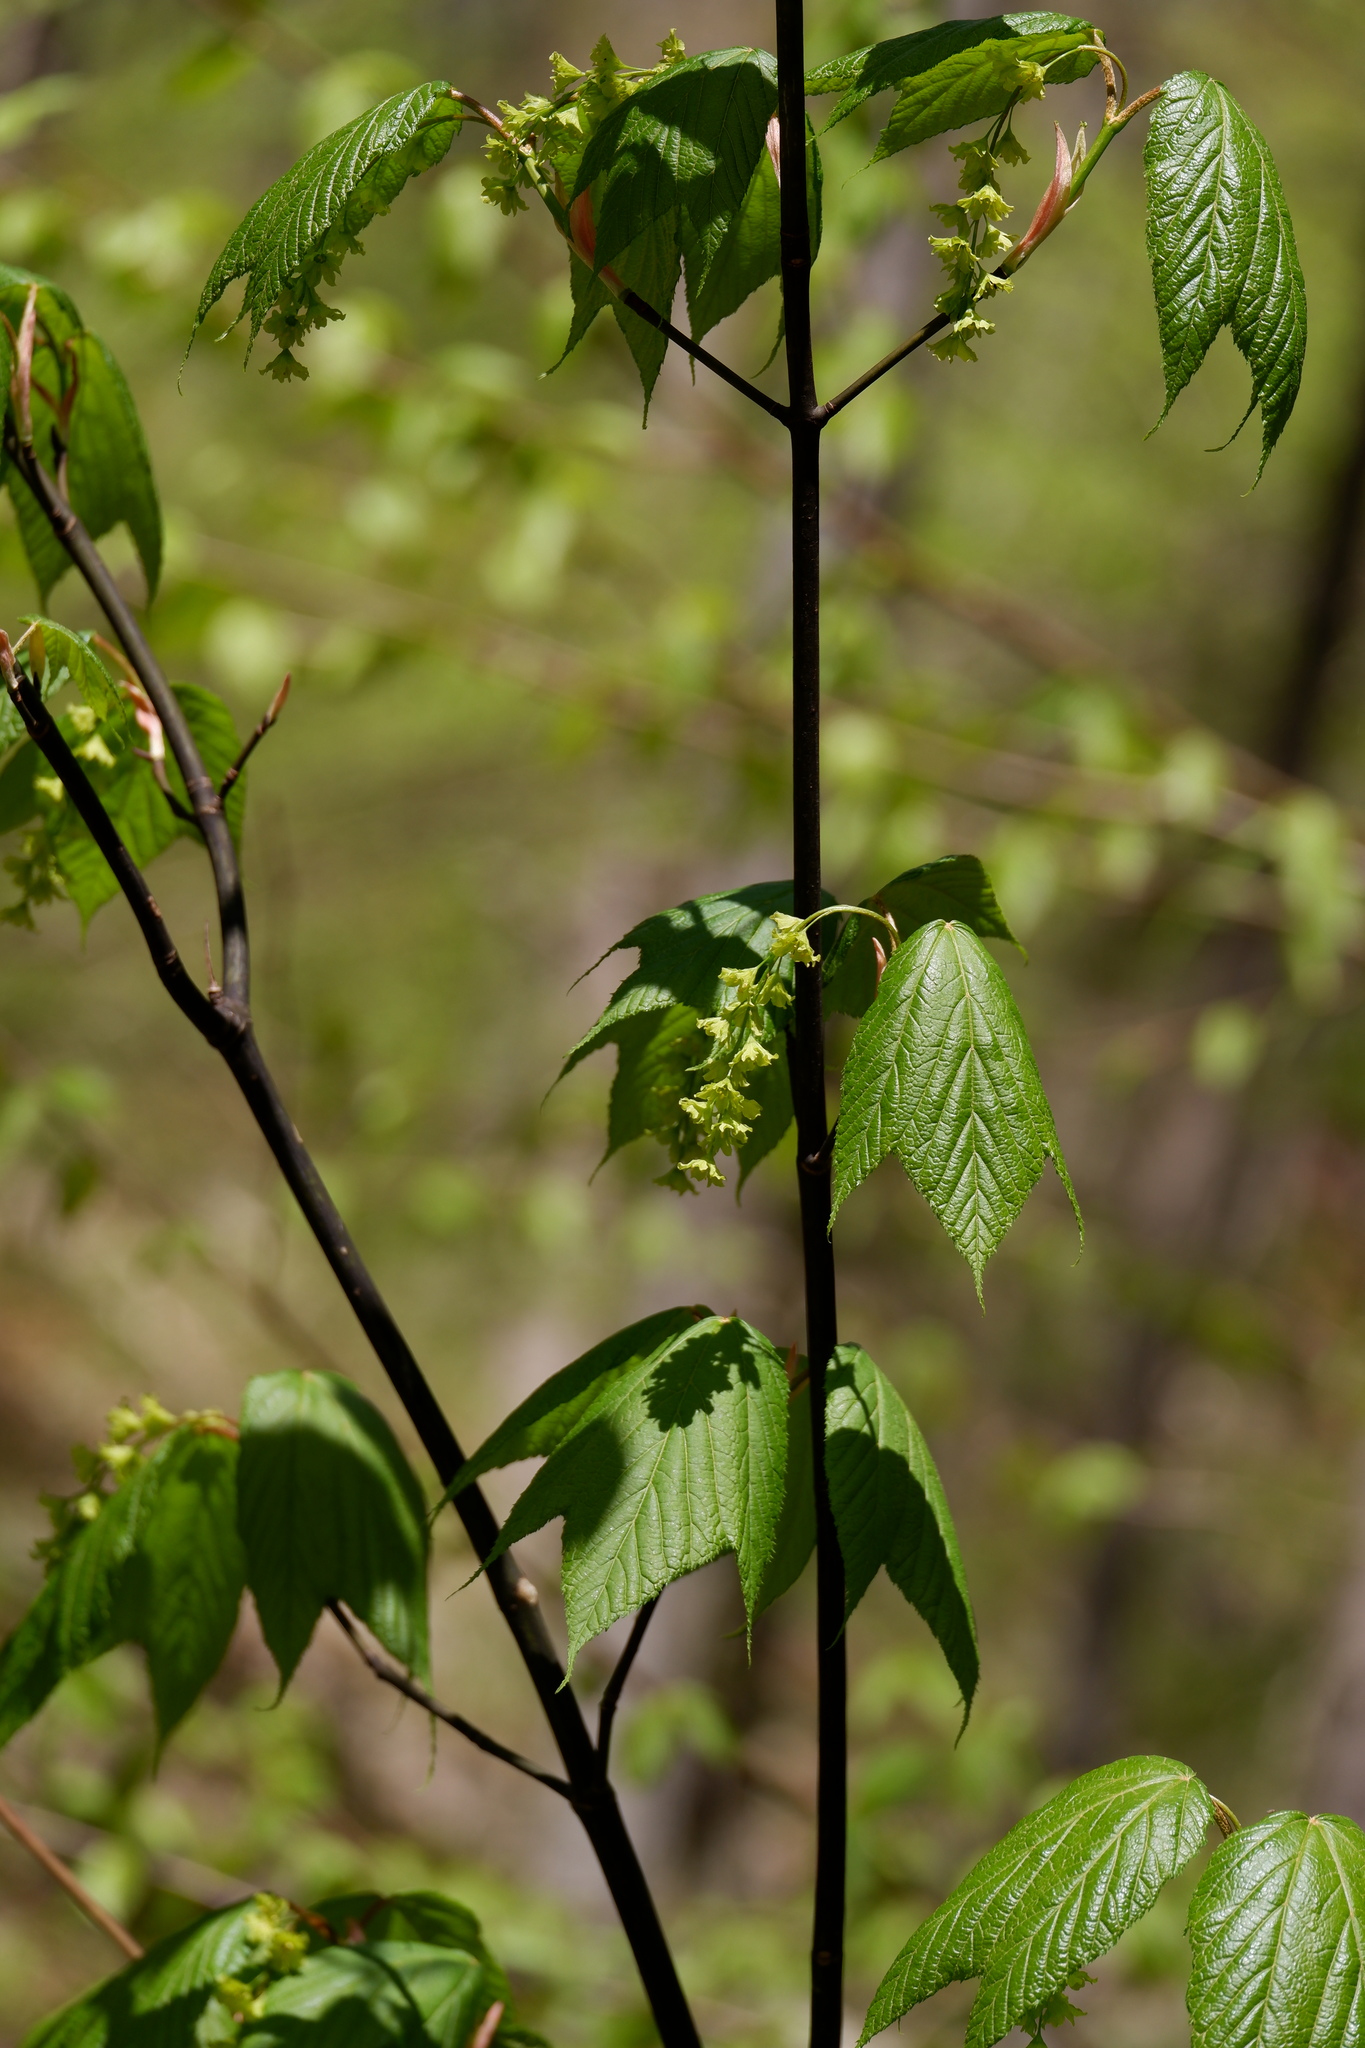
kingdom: Plantae
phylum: Tracheophyta
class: Magnoliopsida
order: Sapindales
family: Sapindaceae
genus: Acer
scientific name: Acer pensylvanicum
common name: Moosewood
